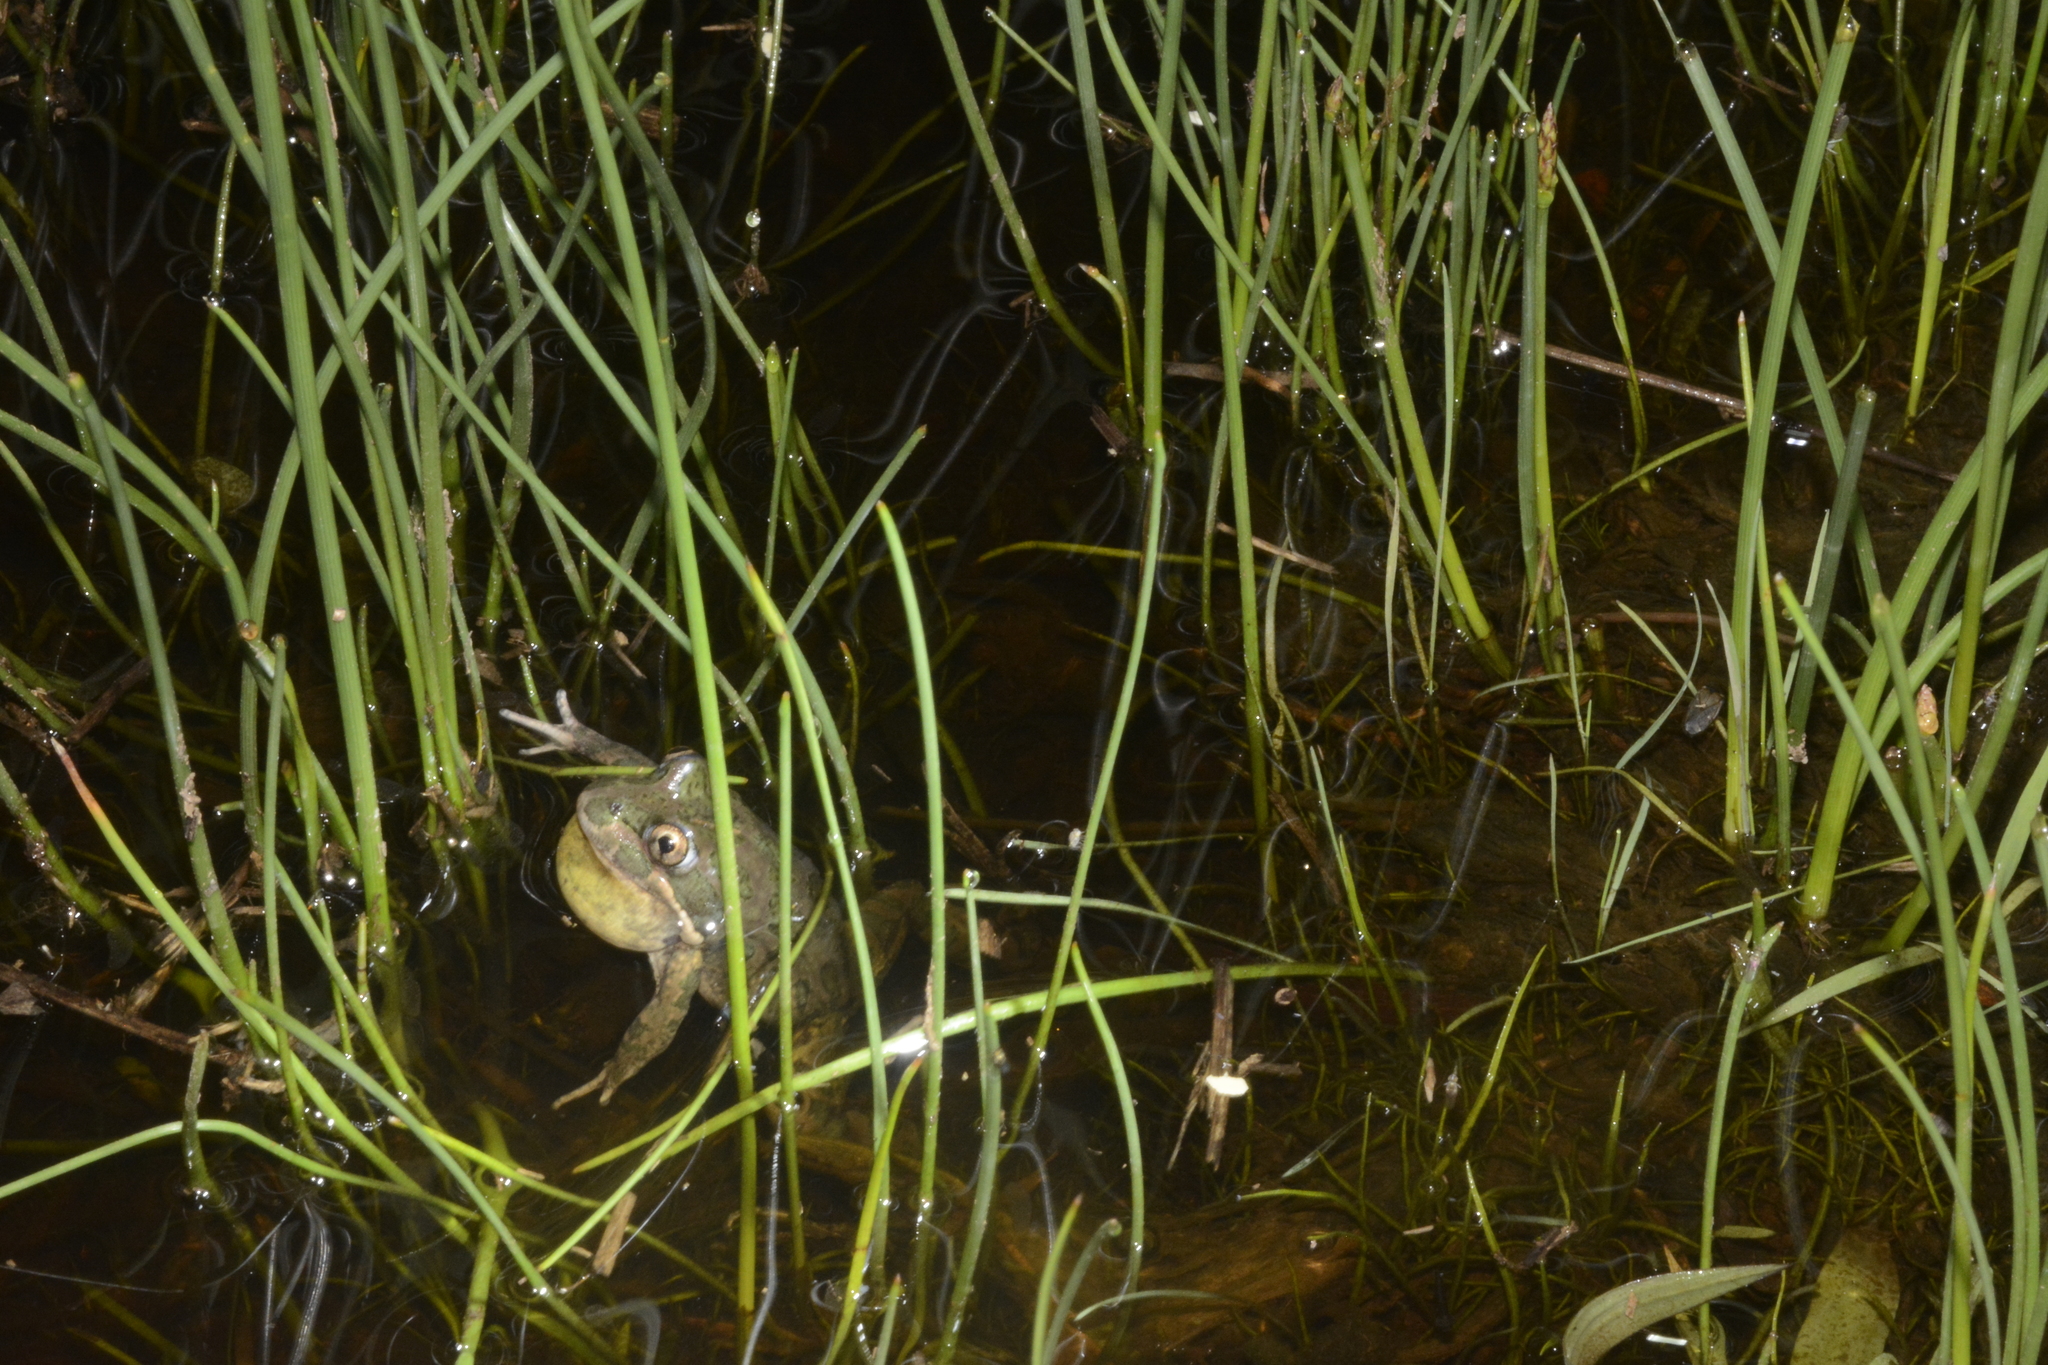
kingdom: Animalia
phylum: Chordata
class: Amphibia
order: Anura
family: Limnodynastidae
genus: Limnodynastes
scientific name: Limnodynastes tasmaniensis
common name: Spotted marsh frog
